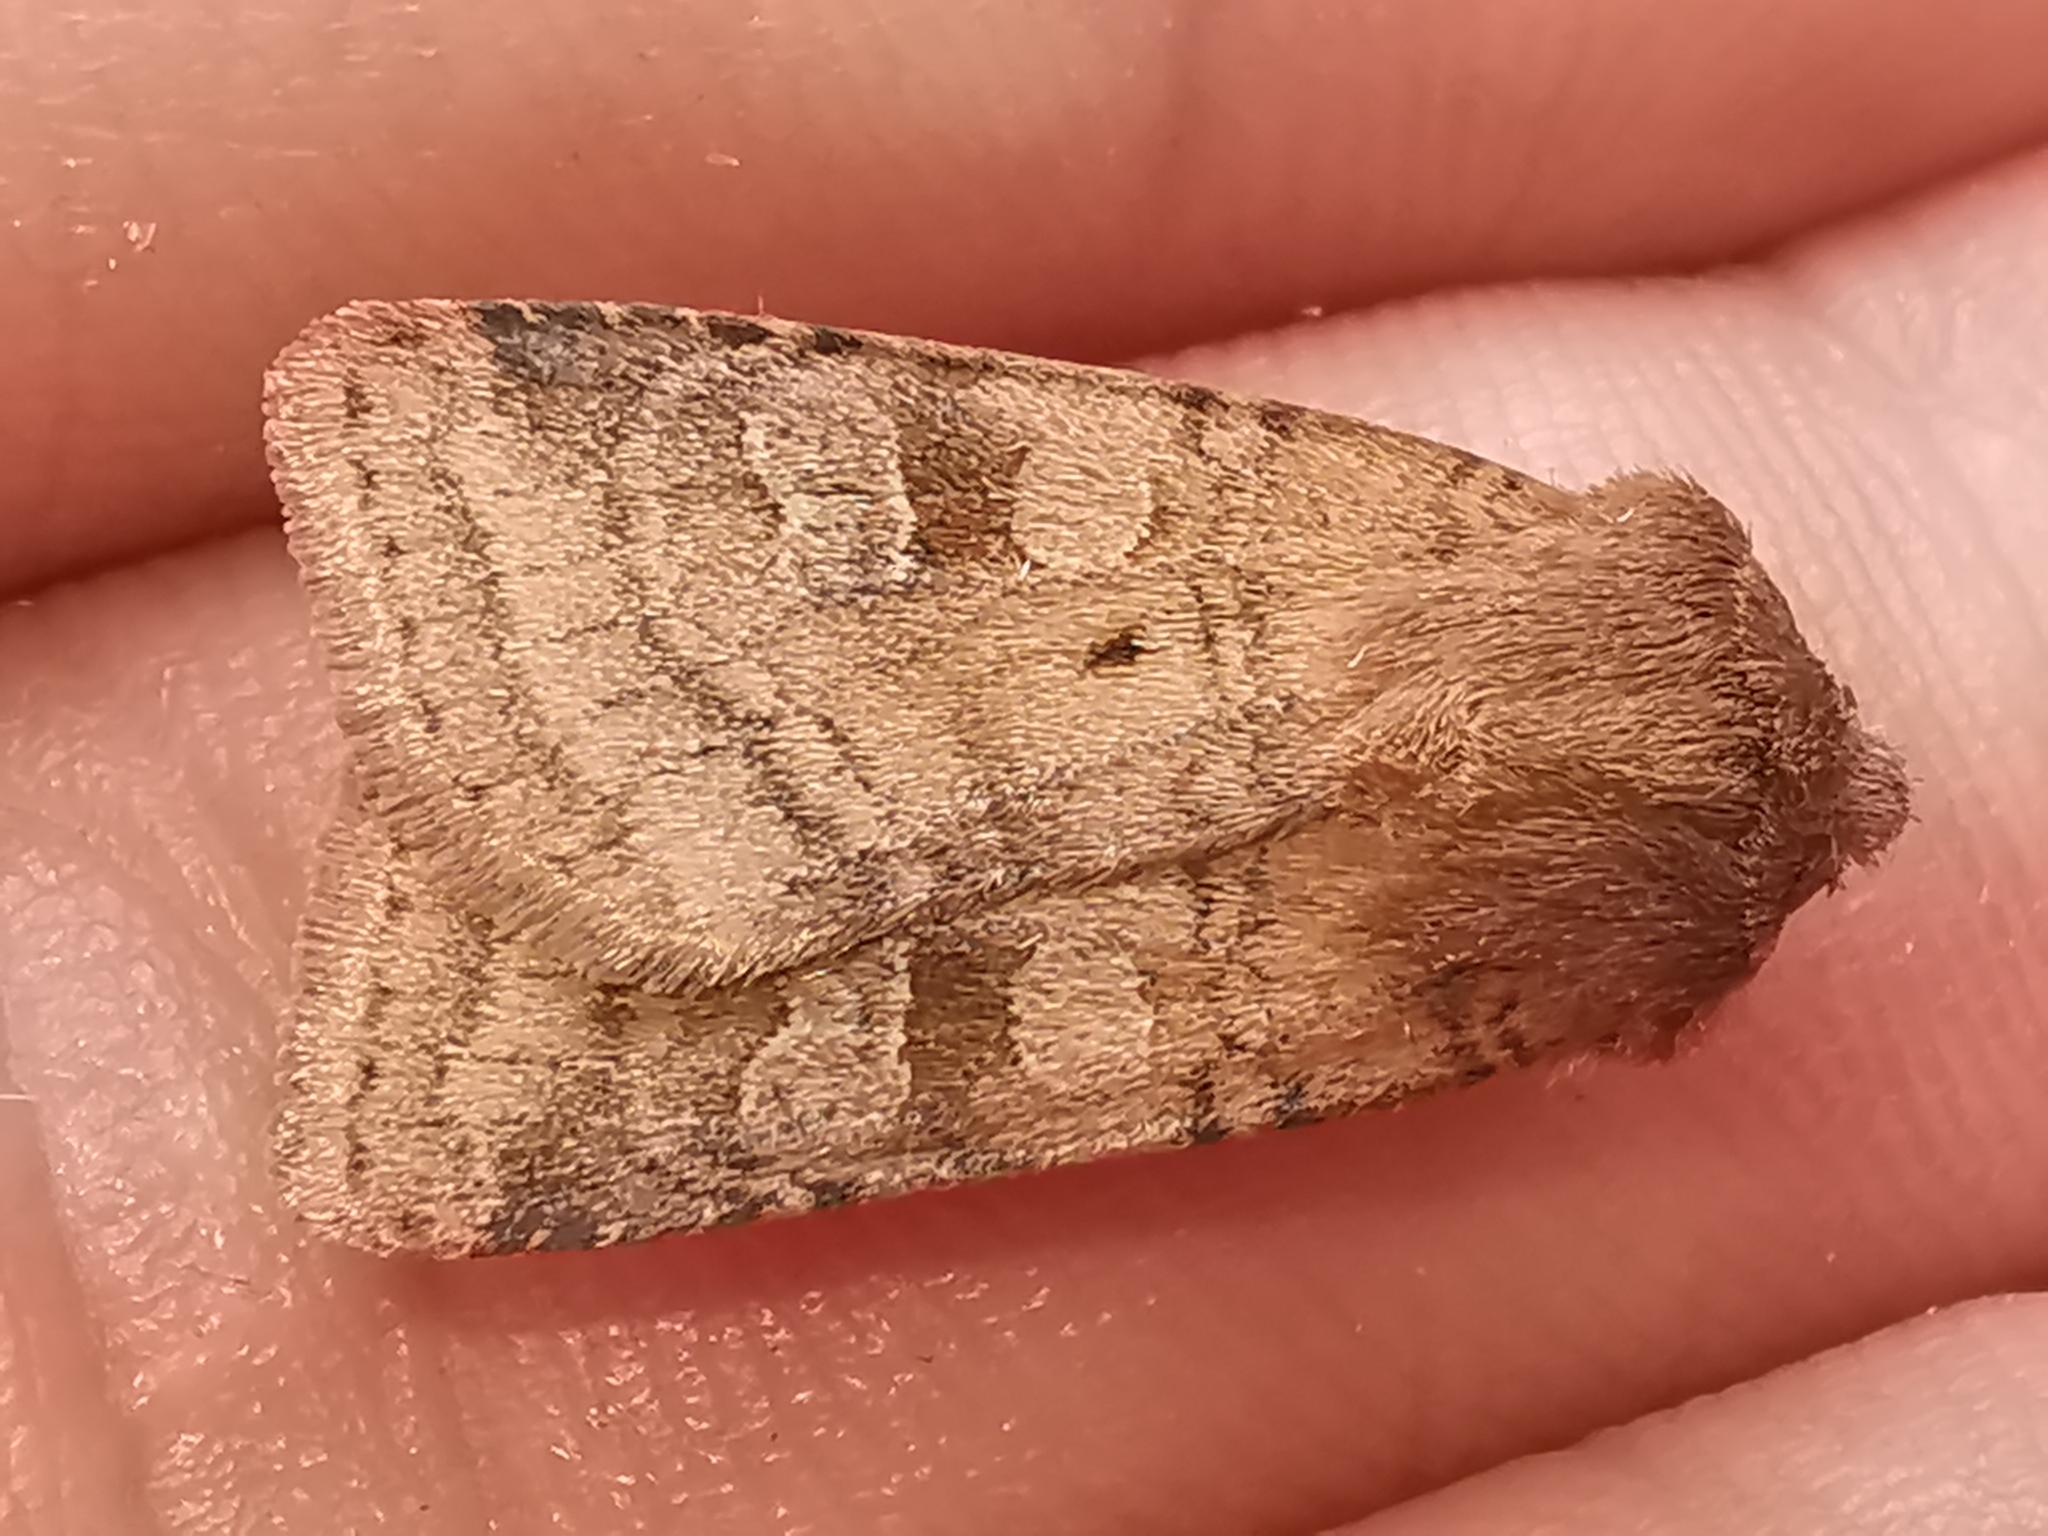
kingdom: Animalia
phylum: Arthropoda
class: Insecta
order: Lepidoptera
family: Noctuidae
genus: Diarsia
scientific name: Diarsia rubi
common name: Small square-spot
